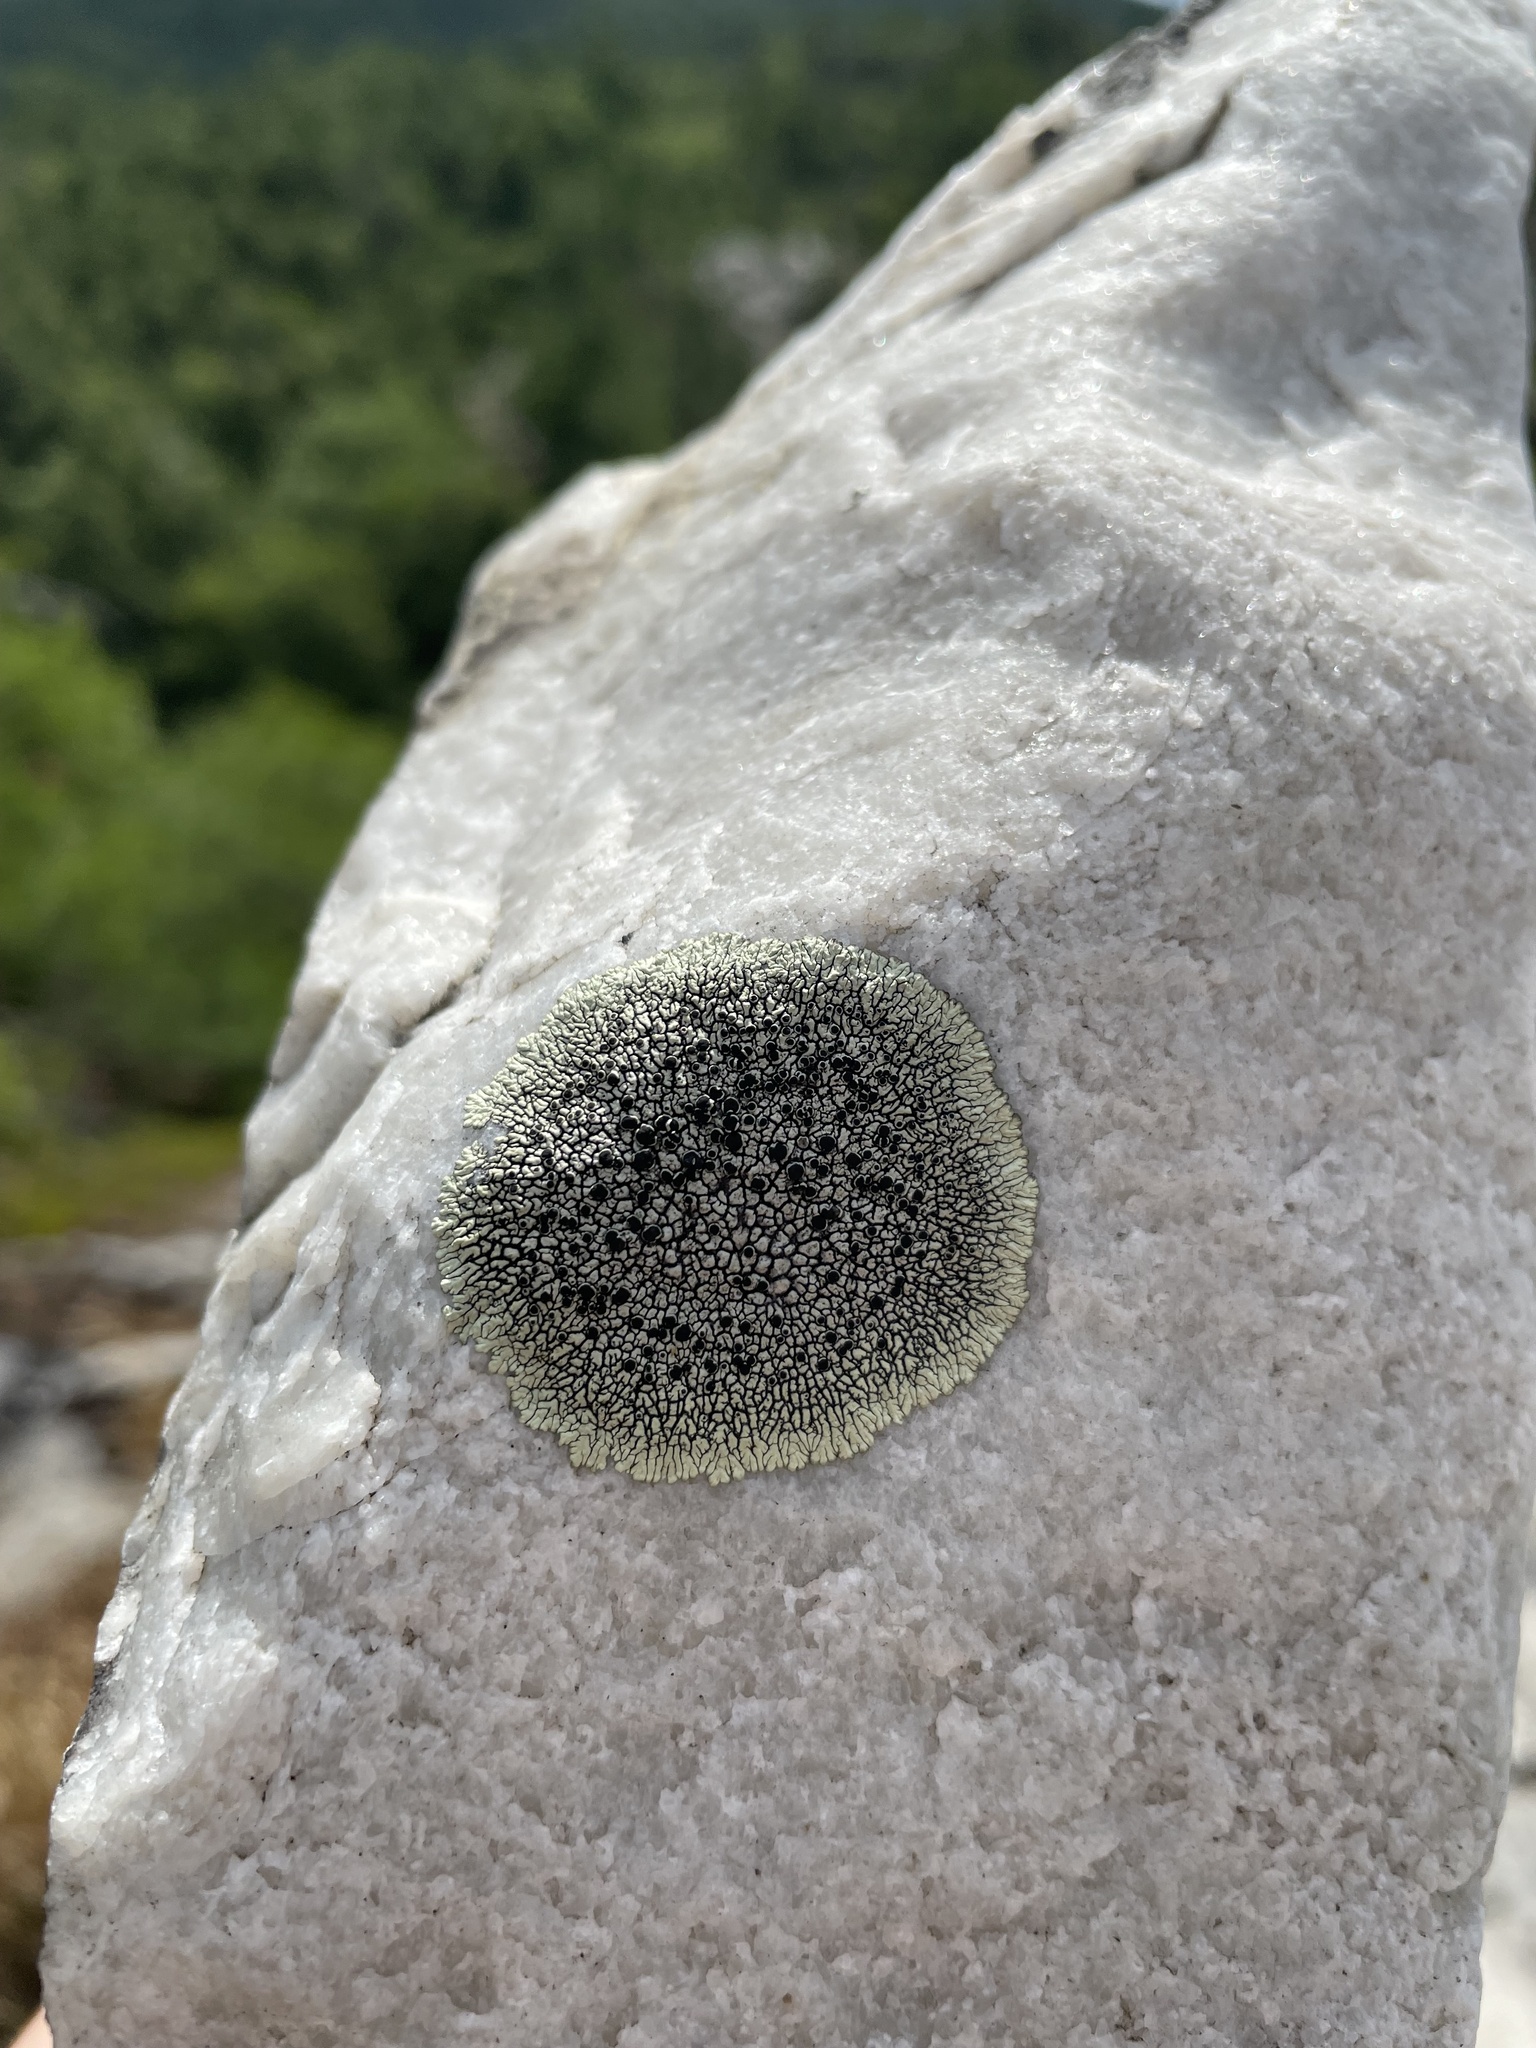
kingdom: Fungi
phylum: Ascomycota
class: Lecanoromycetes
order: Caliciales
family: Caliciaceae
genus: Dimelaena
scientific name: Dimelaena oreina
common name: Golden moonglow lichen
